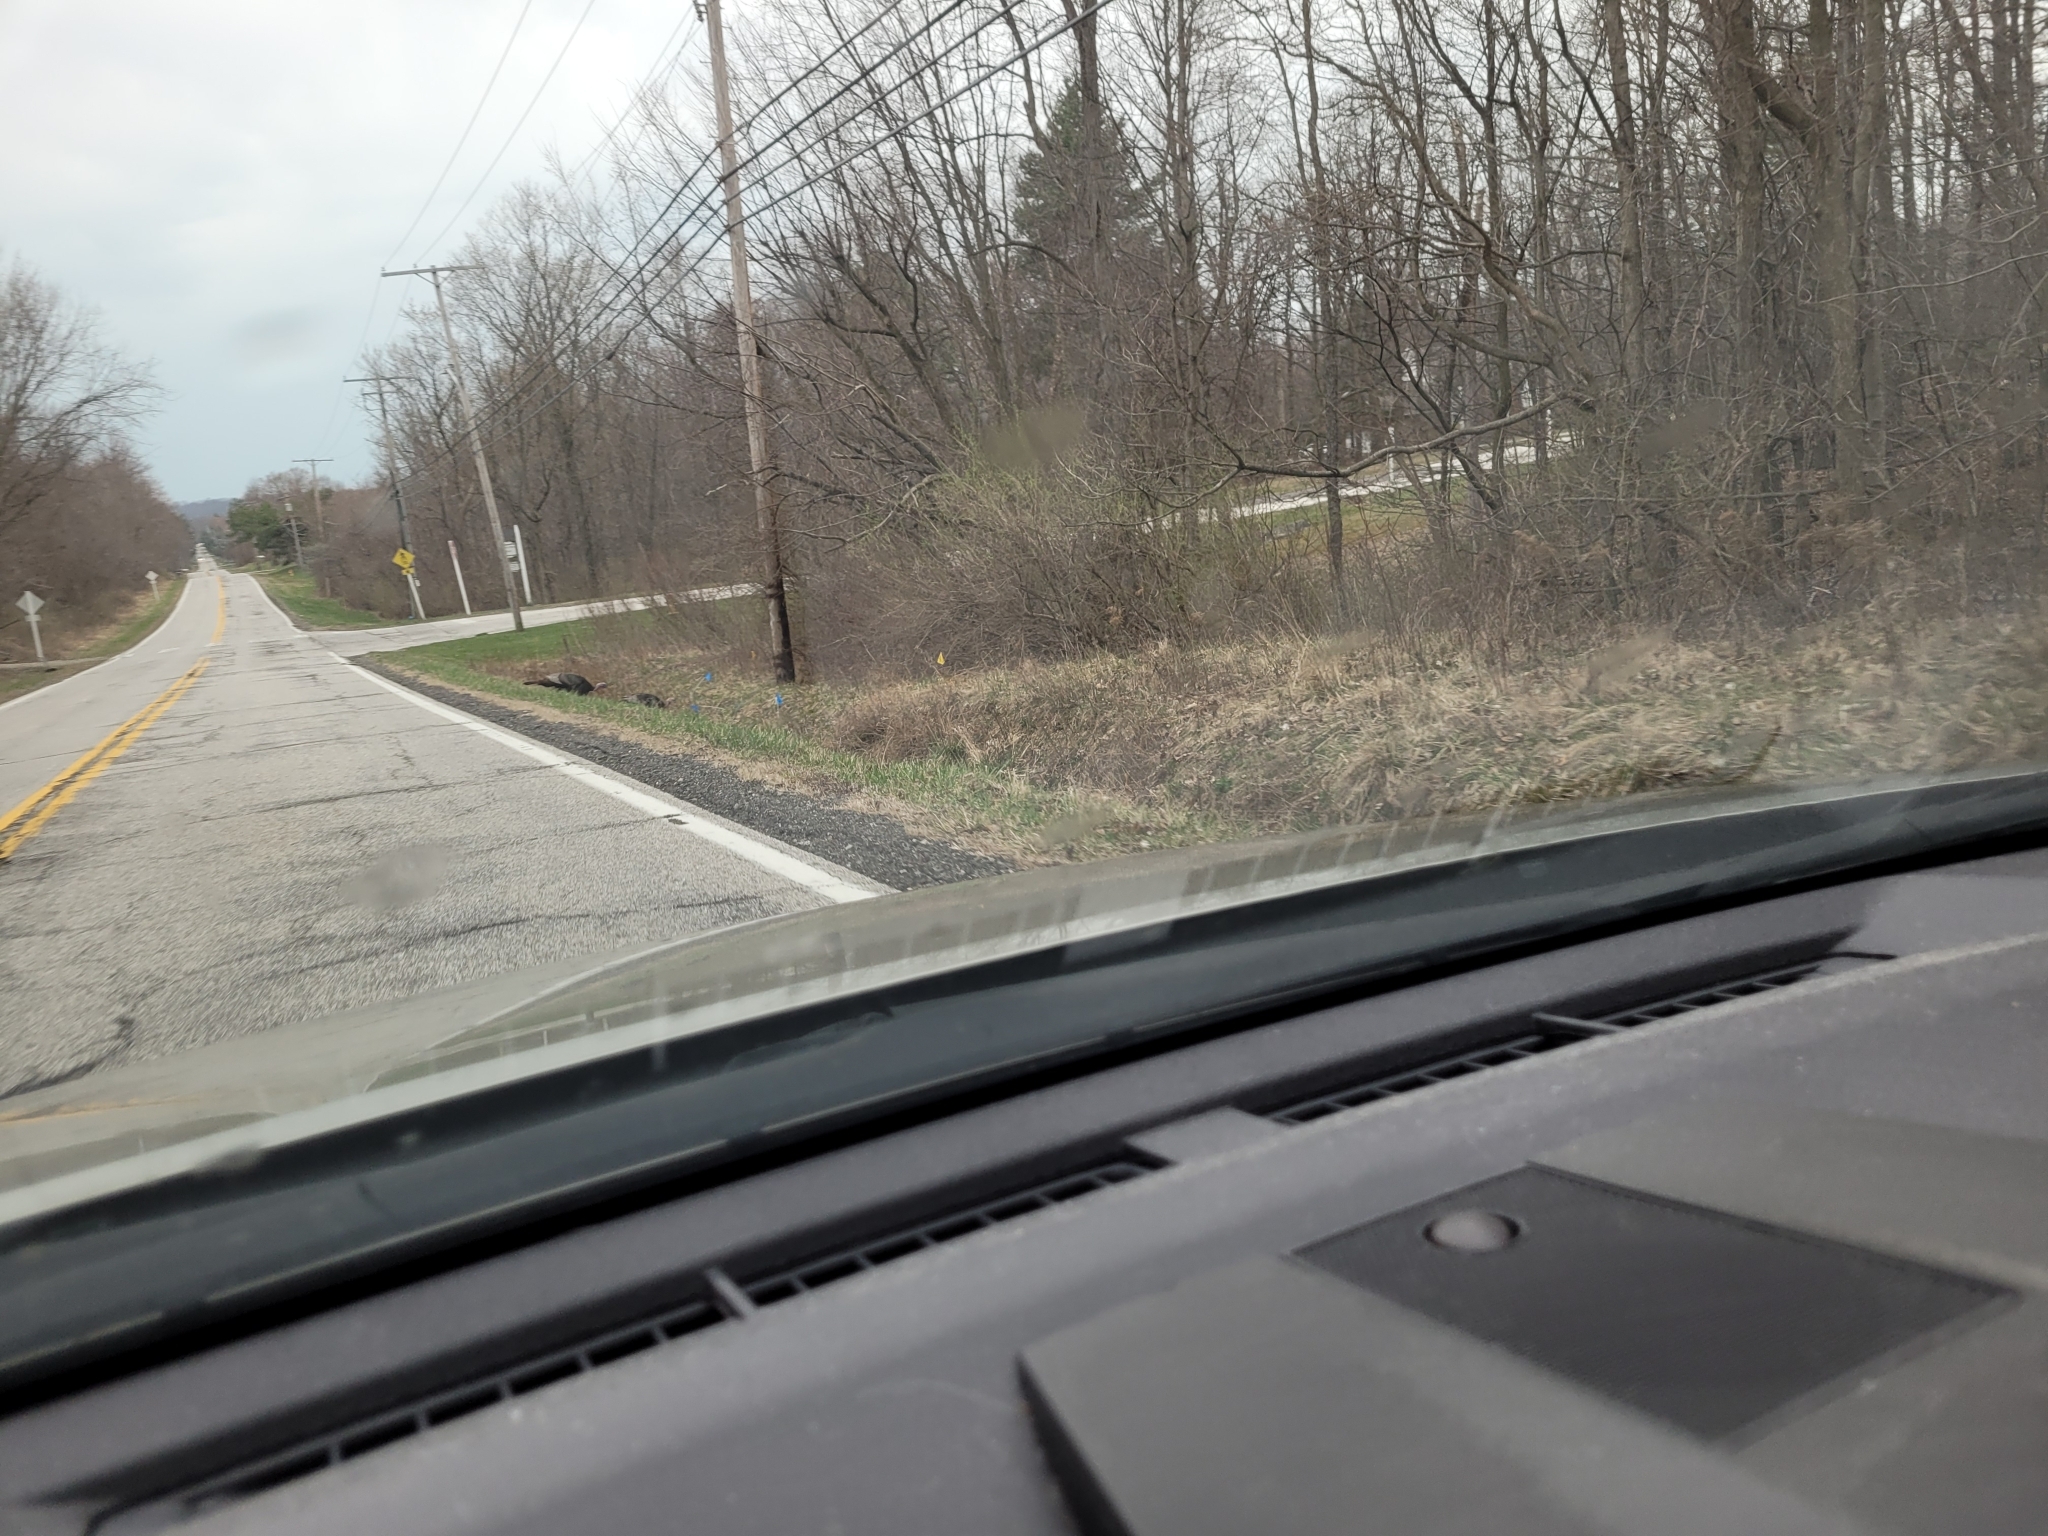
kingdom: Animalia
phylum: Chordata
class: Aves
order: Galliformes
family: Phasianidae
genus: Meleagris
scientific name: Meleagris gallopavo
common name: Wild turkey
